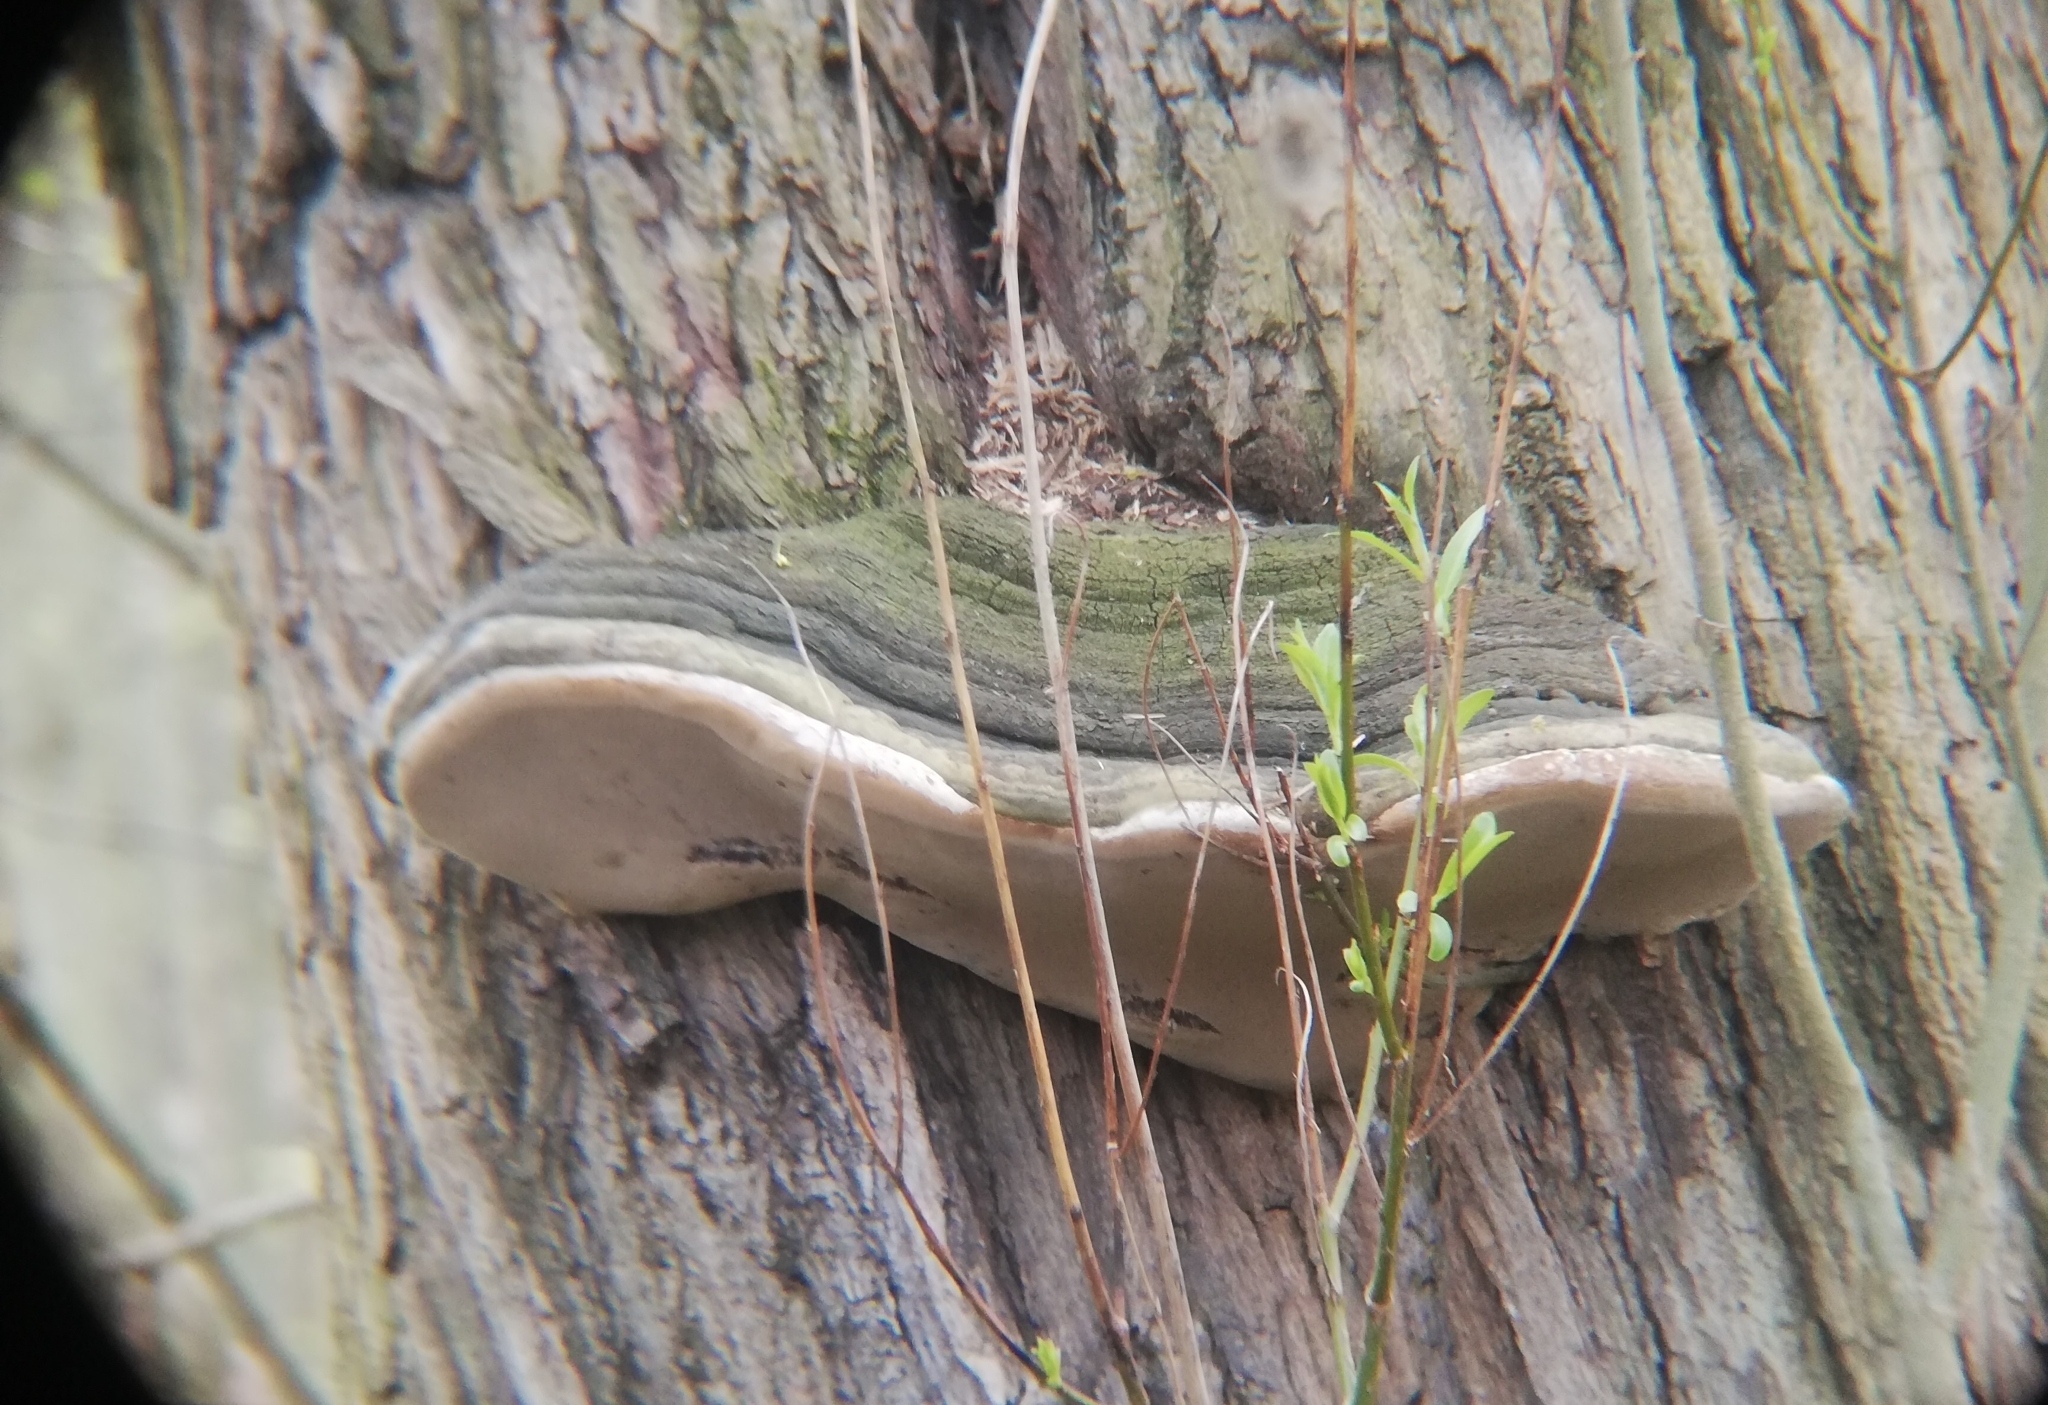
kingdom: Fungi
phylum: Basidiomycota
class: Agaricomycetes
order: Hymenochaetales
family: Hymenochaetaceae
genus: Phellinus
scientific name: Phellinus igniarius
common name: Willow bracket
